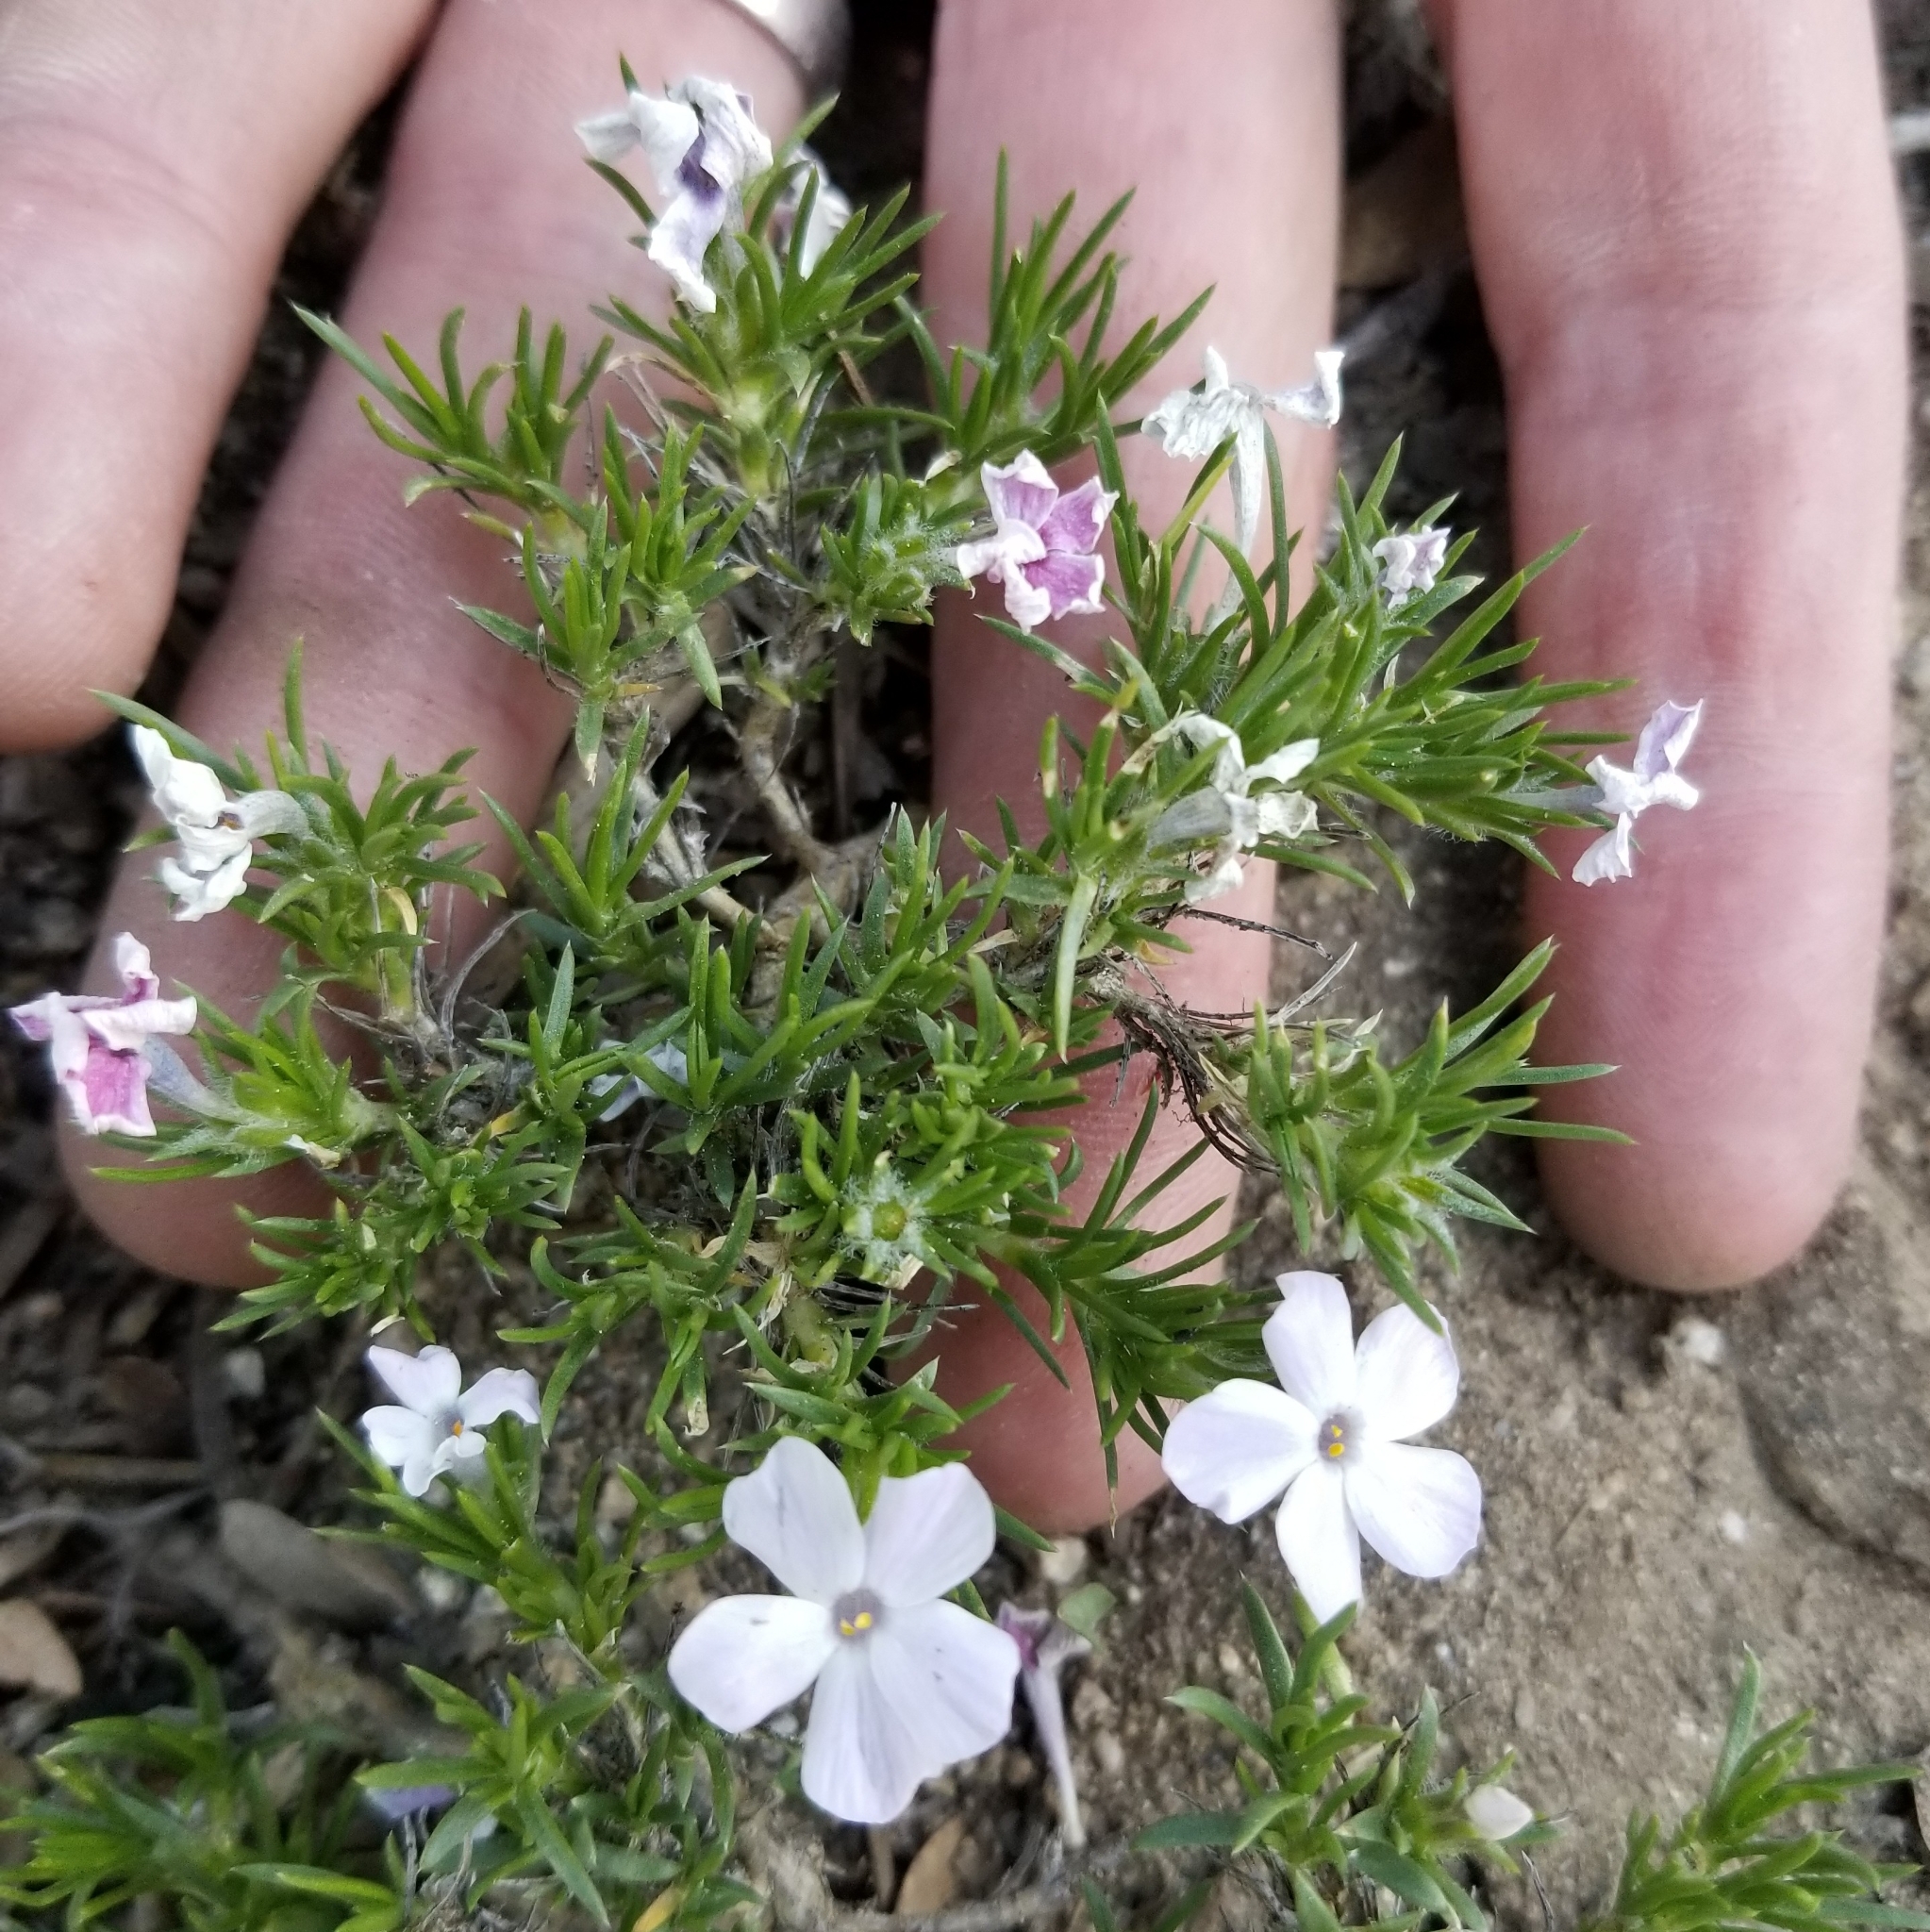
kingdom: Plantae
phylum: Tracheophyta
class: Magnoliopsida
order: Ericales
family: Polemoniaceae
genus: Phlox
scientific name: Phlox diffusa
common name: Mat phlox
